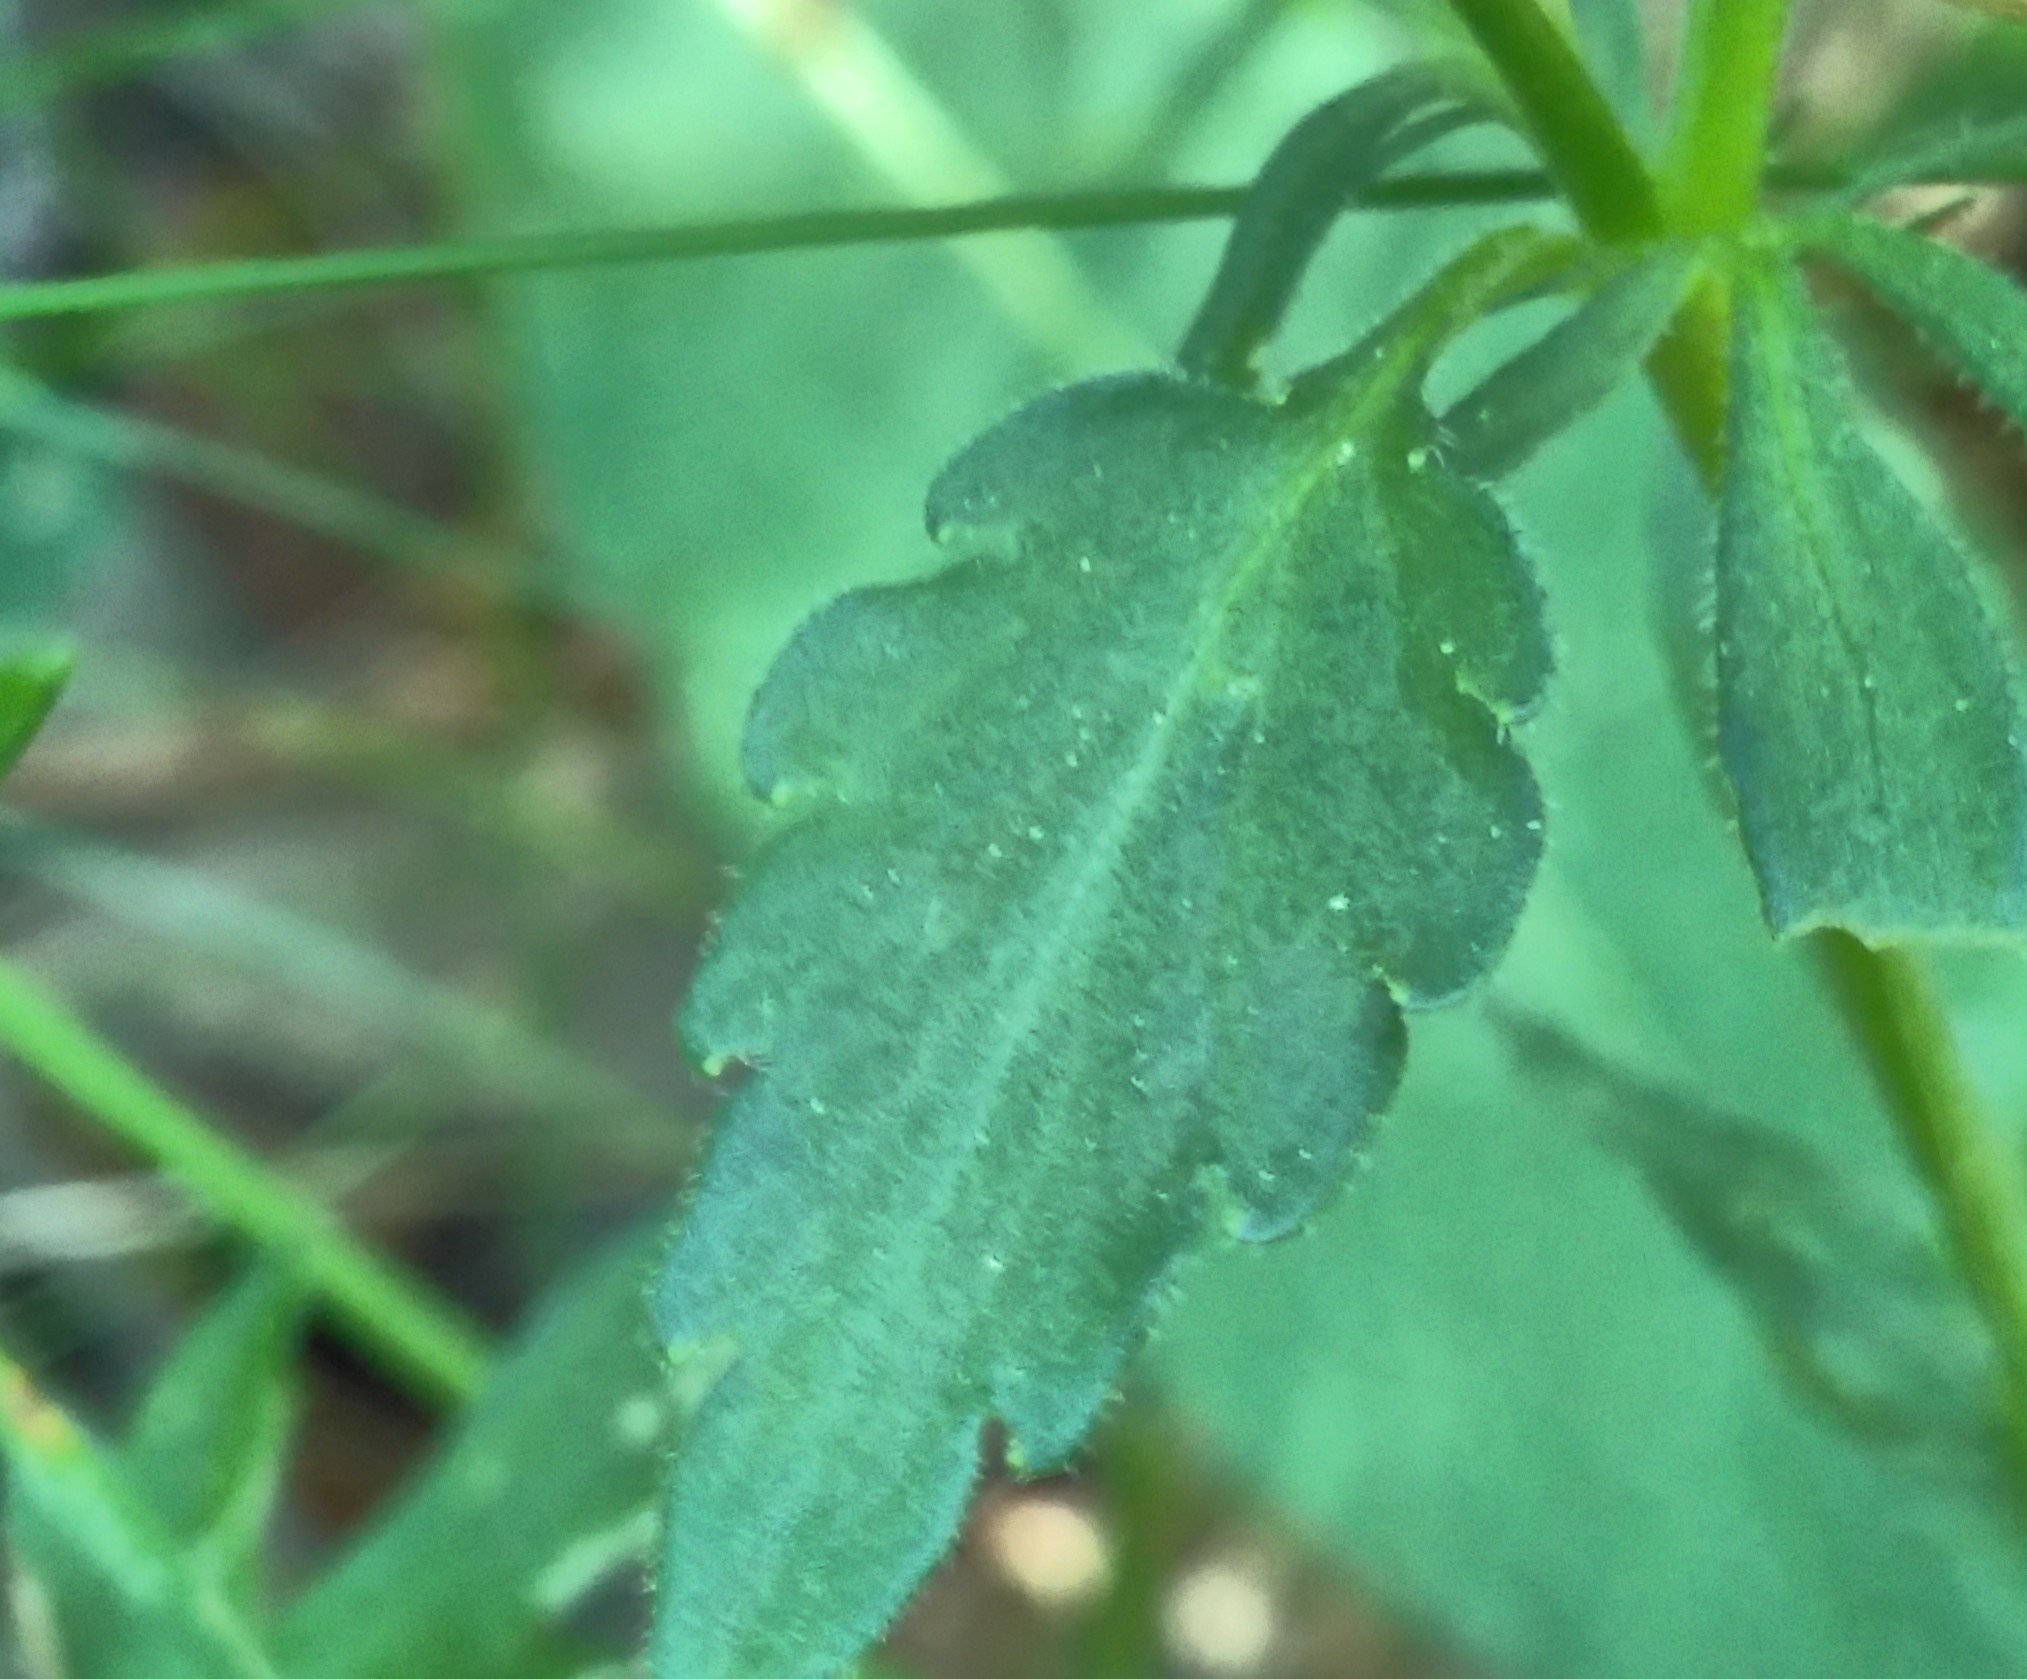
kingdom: Plantae
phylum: Tracheophyta
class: Magnoliopsida
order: Malpighiales
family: Violaceae
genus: Viola
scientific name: Viola arvensis
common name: Field pansy
